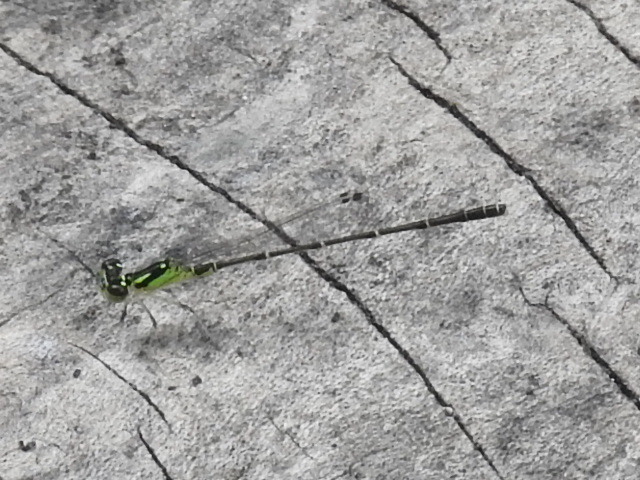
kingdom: Animalia
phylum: Arthropoda
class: Insecta
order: Odonata
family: Coenagrionidae
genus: Ischnura
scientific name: Ischnura posita
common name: Fragile forktail
